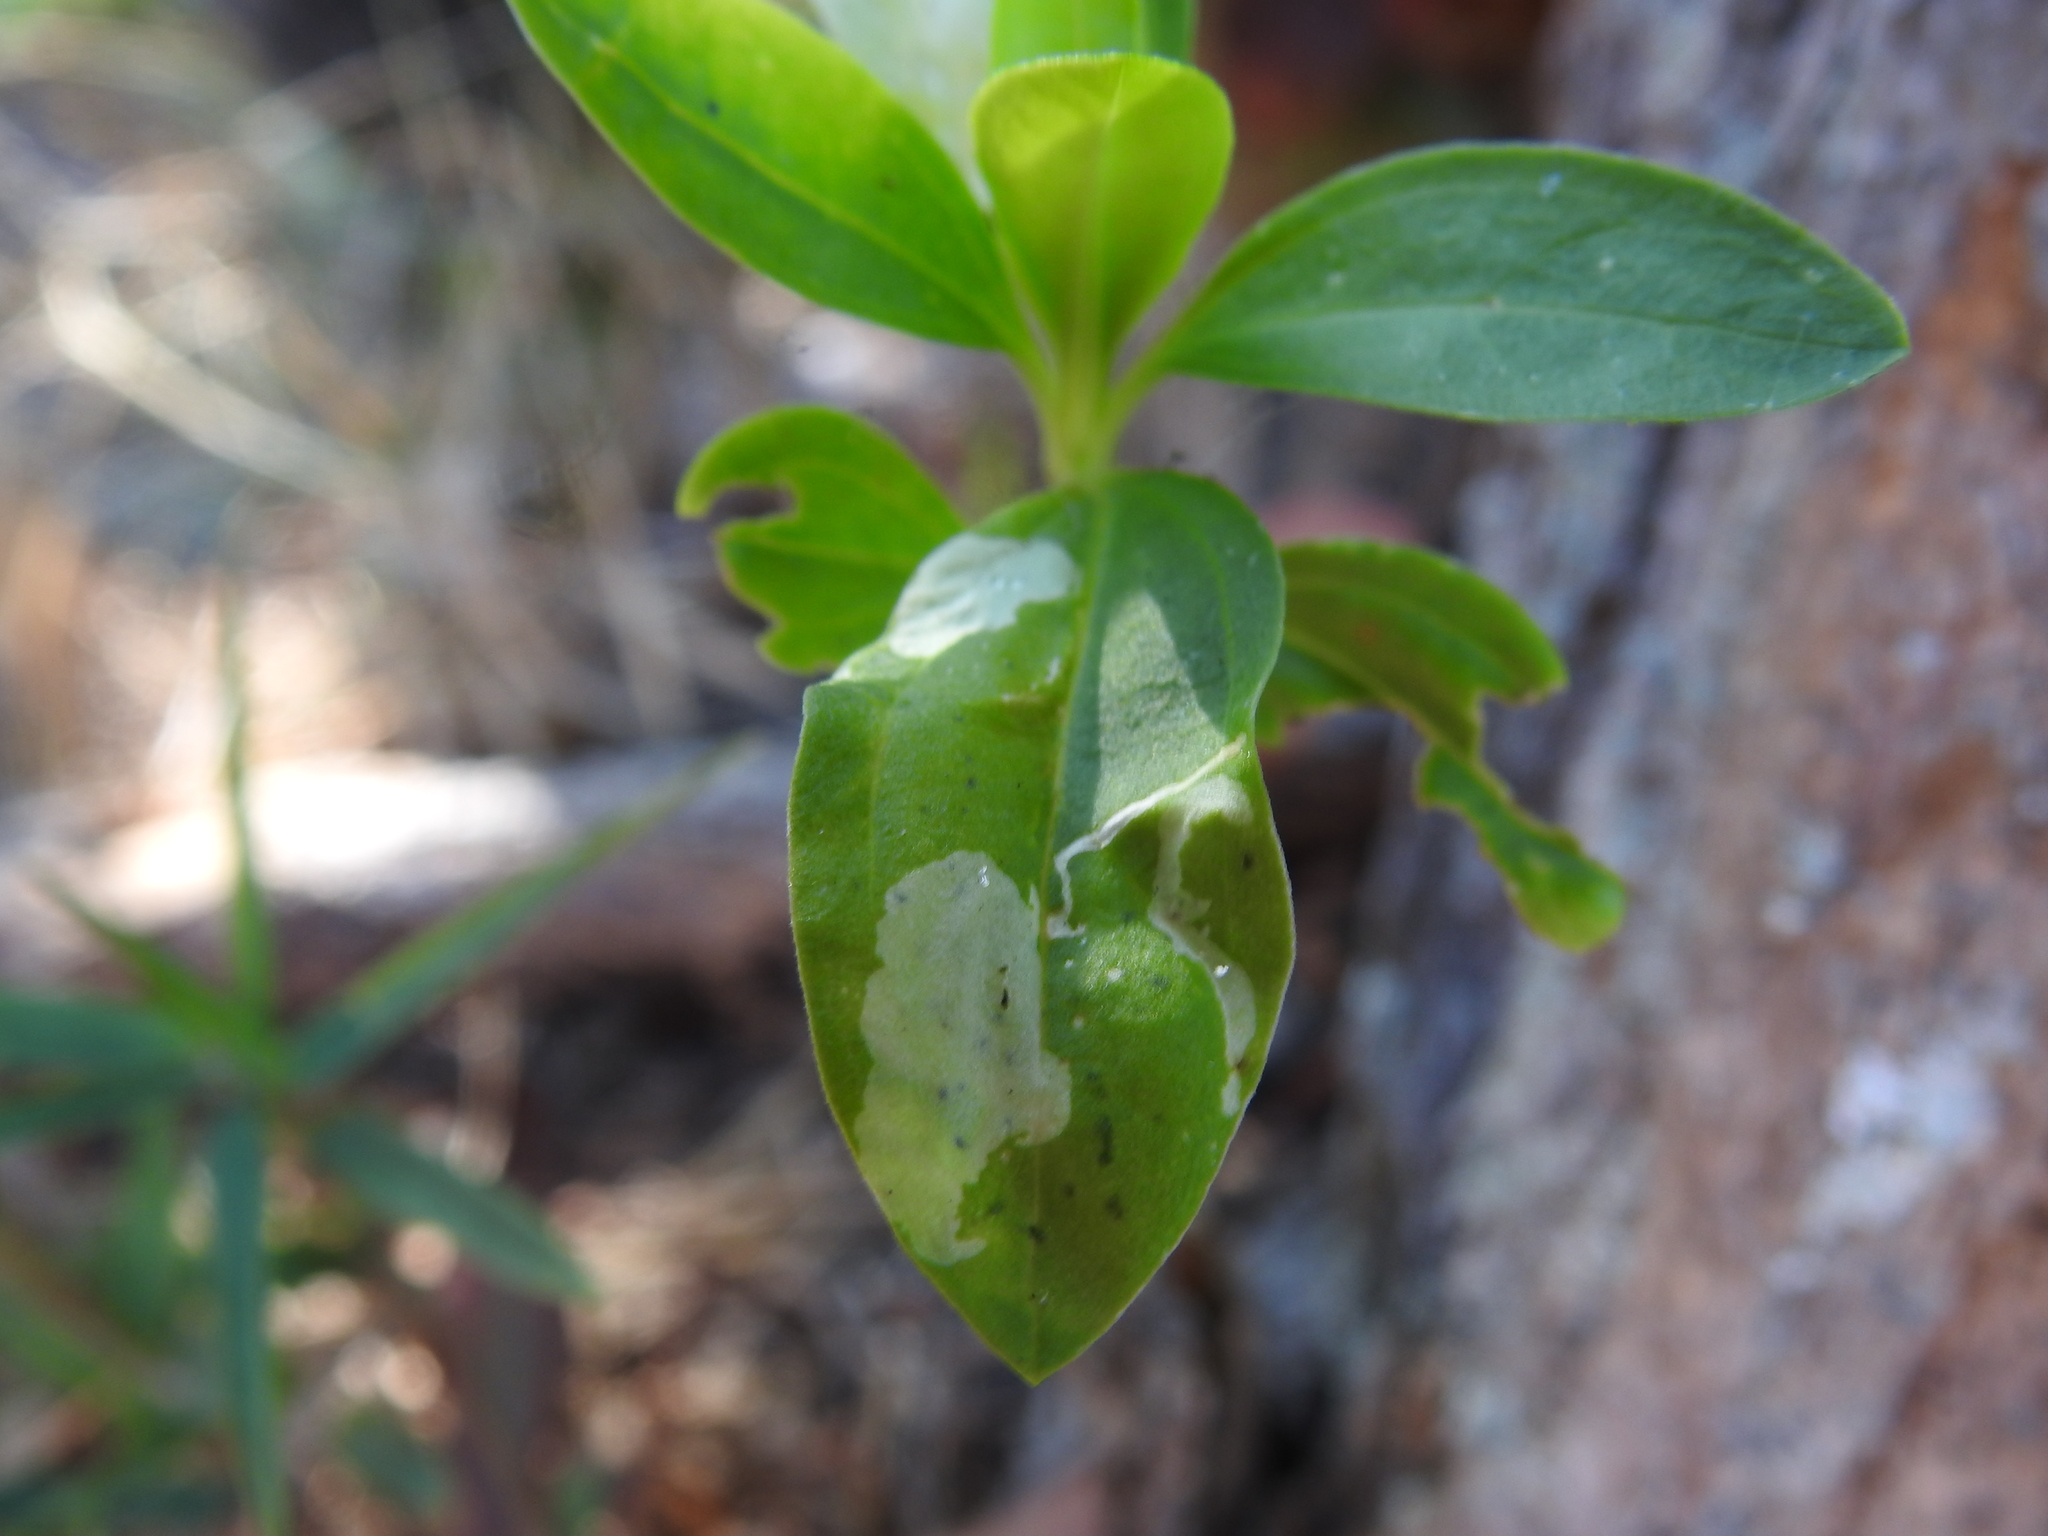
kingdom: Animalia
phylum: Arthropoda
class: Insecta
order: Diptera
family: Agromyzidae
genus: Amauromyza
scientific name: Amauromyza flavifrons
